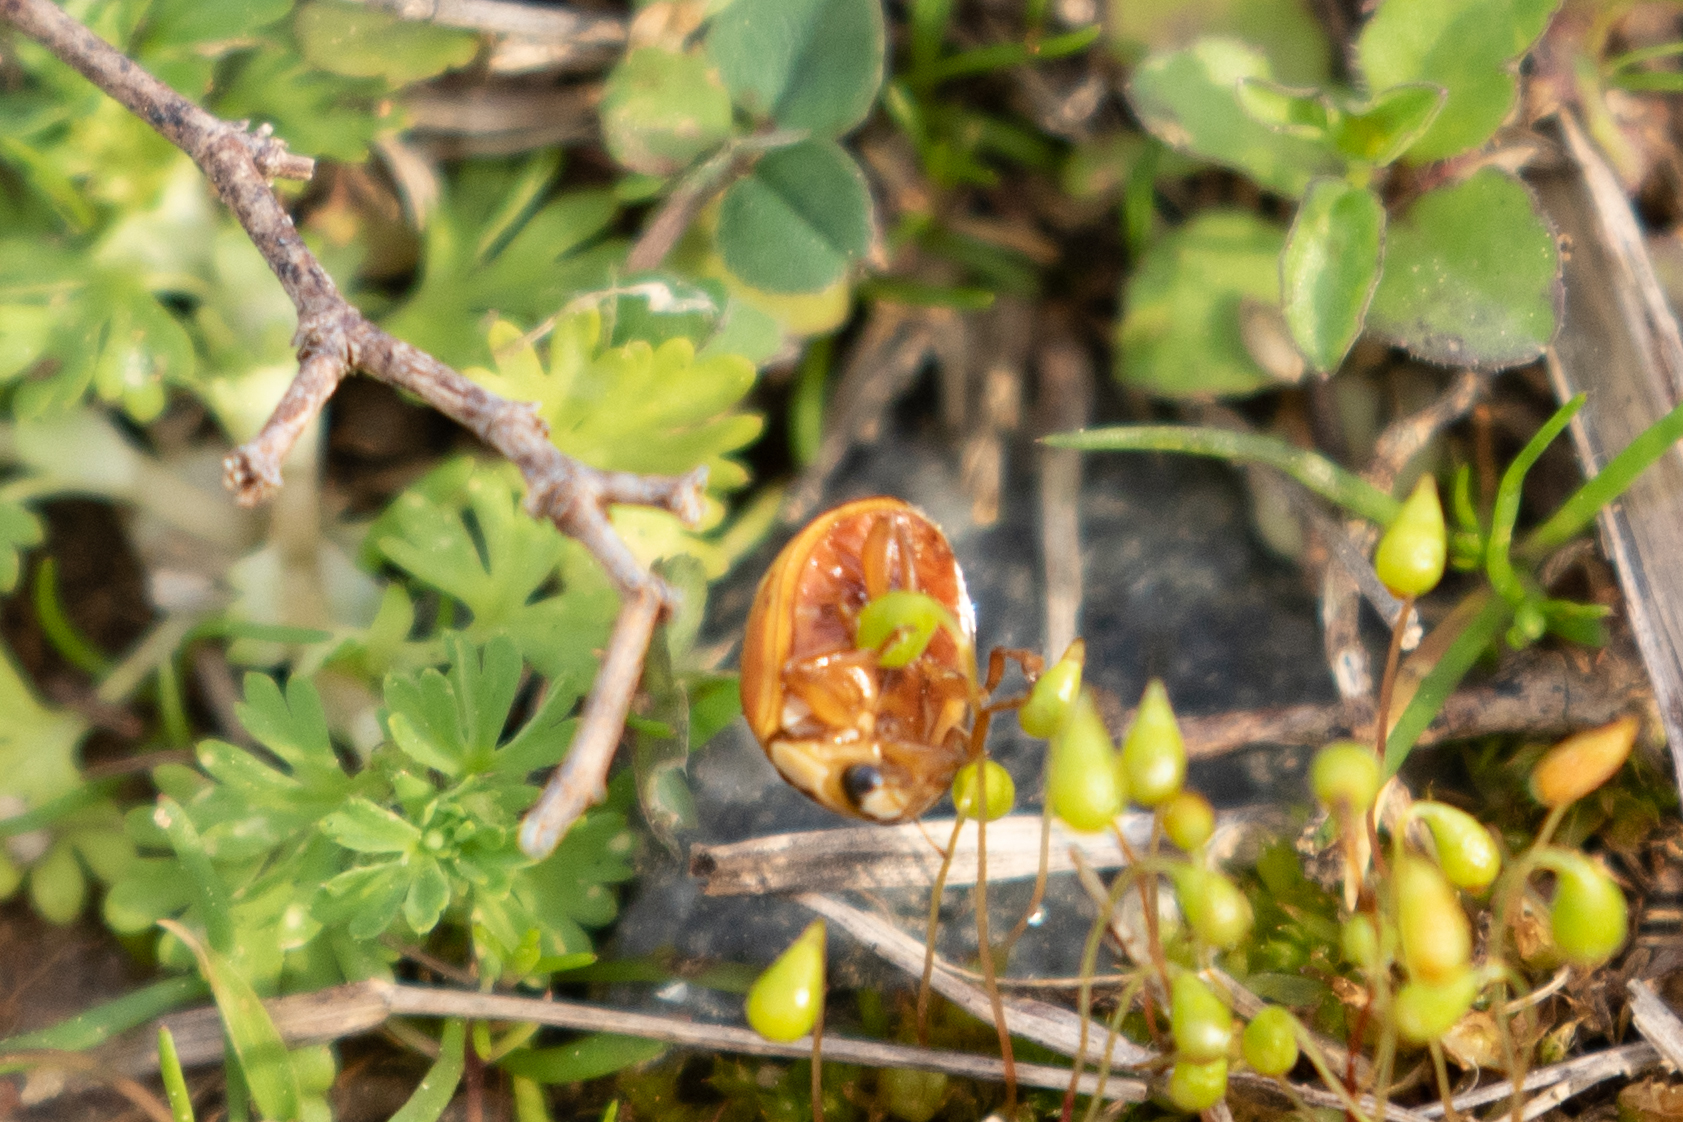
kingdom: Animalia
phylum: Arthropoda
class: Insecta
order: Coleoptera
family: Coccinellidae
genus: Harmonia
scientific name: Harmonia axyridis
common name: Harlequin ladybird
